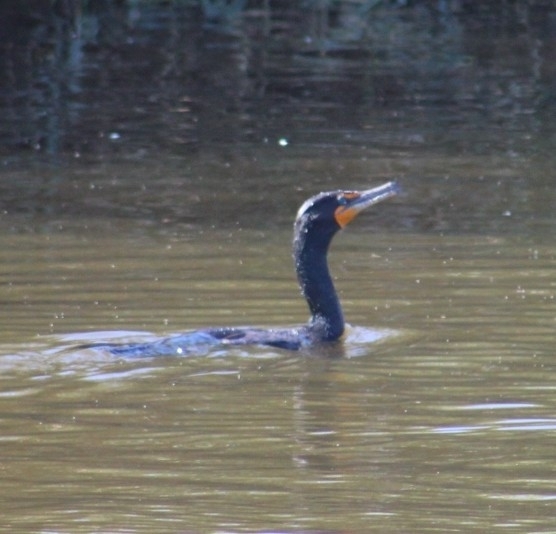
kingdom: Animalia
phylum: Chordata
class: Aves
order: Suliformes
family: Phalacrocoracidae
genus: Phalacrocorax
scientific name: Phalacrocorax auritus
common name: Double-crested cormorant
